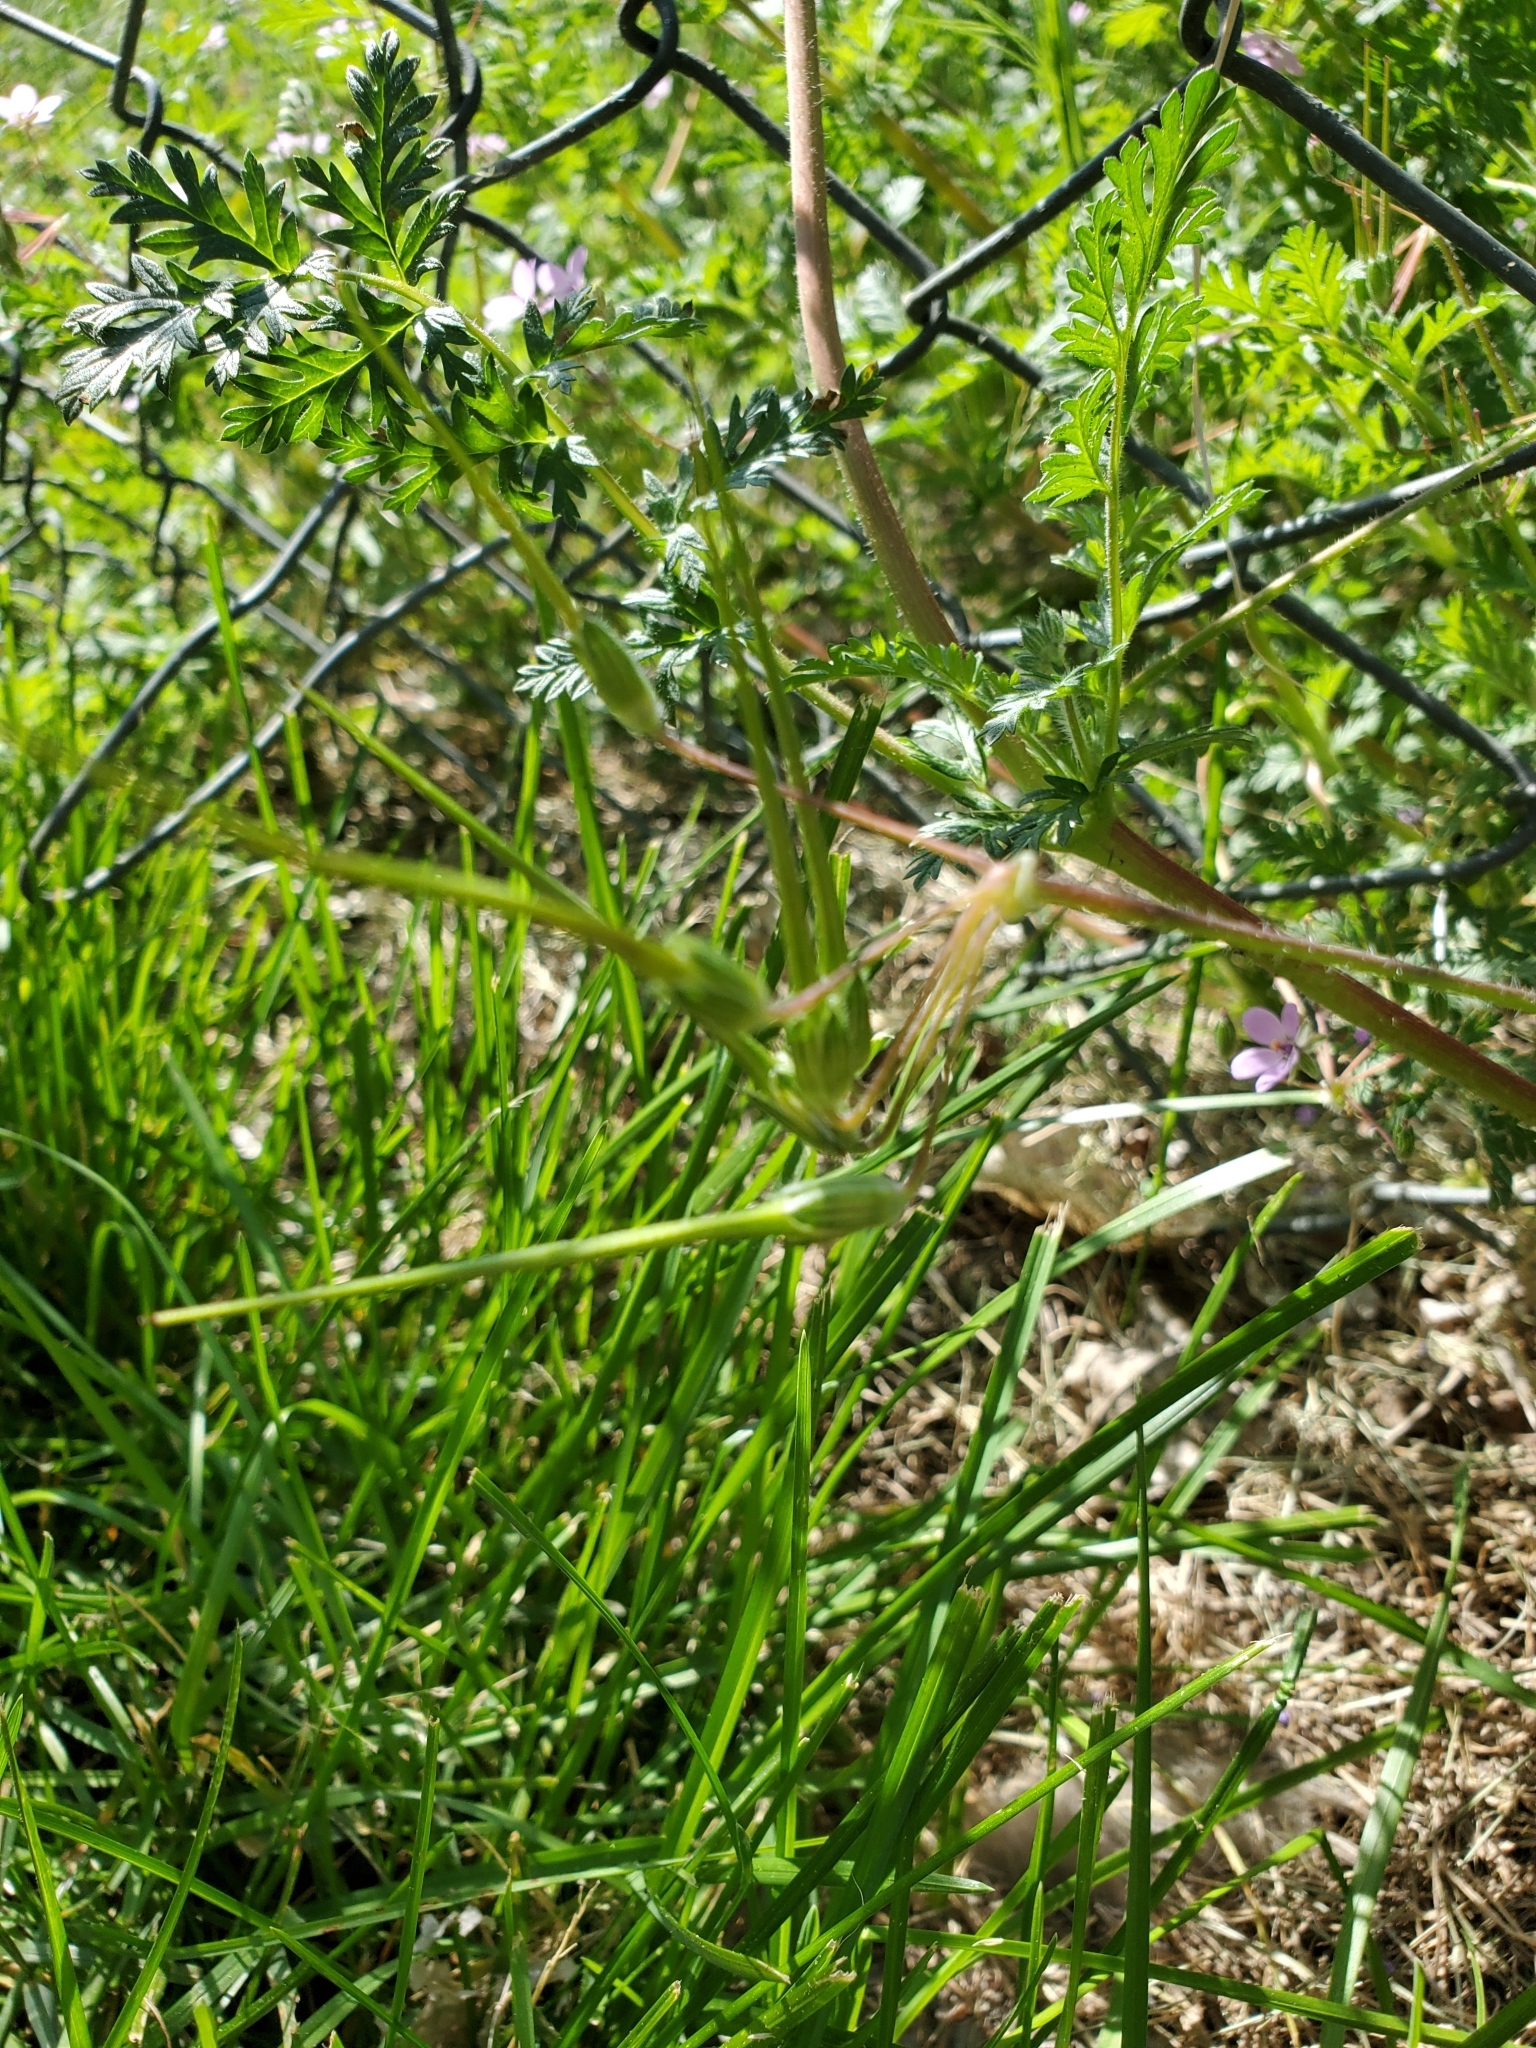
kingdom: Plantae
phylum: Tracheophyta
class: Magnoliopsida
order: Geraniales
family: Geraniaceae
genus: Erodium
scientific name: Erodium cicutarium
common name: Common stork's-bill
